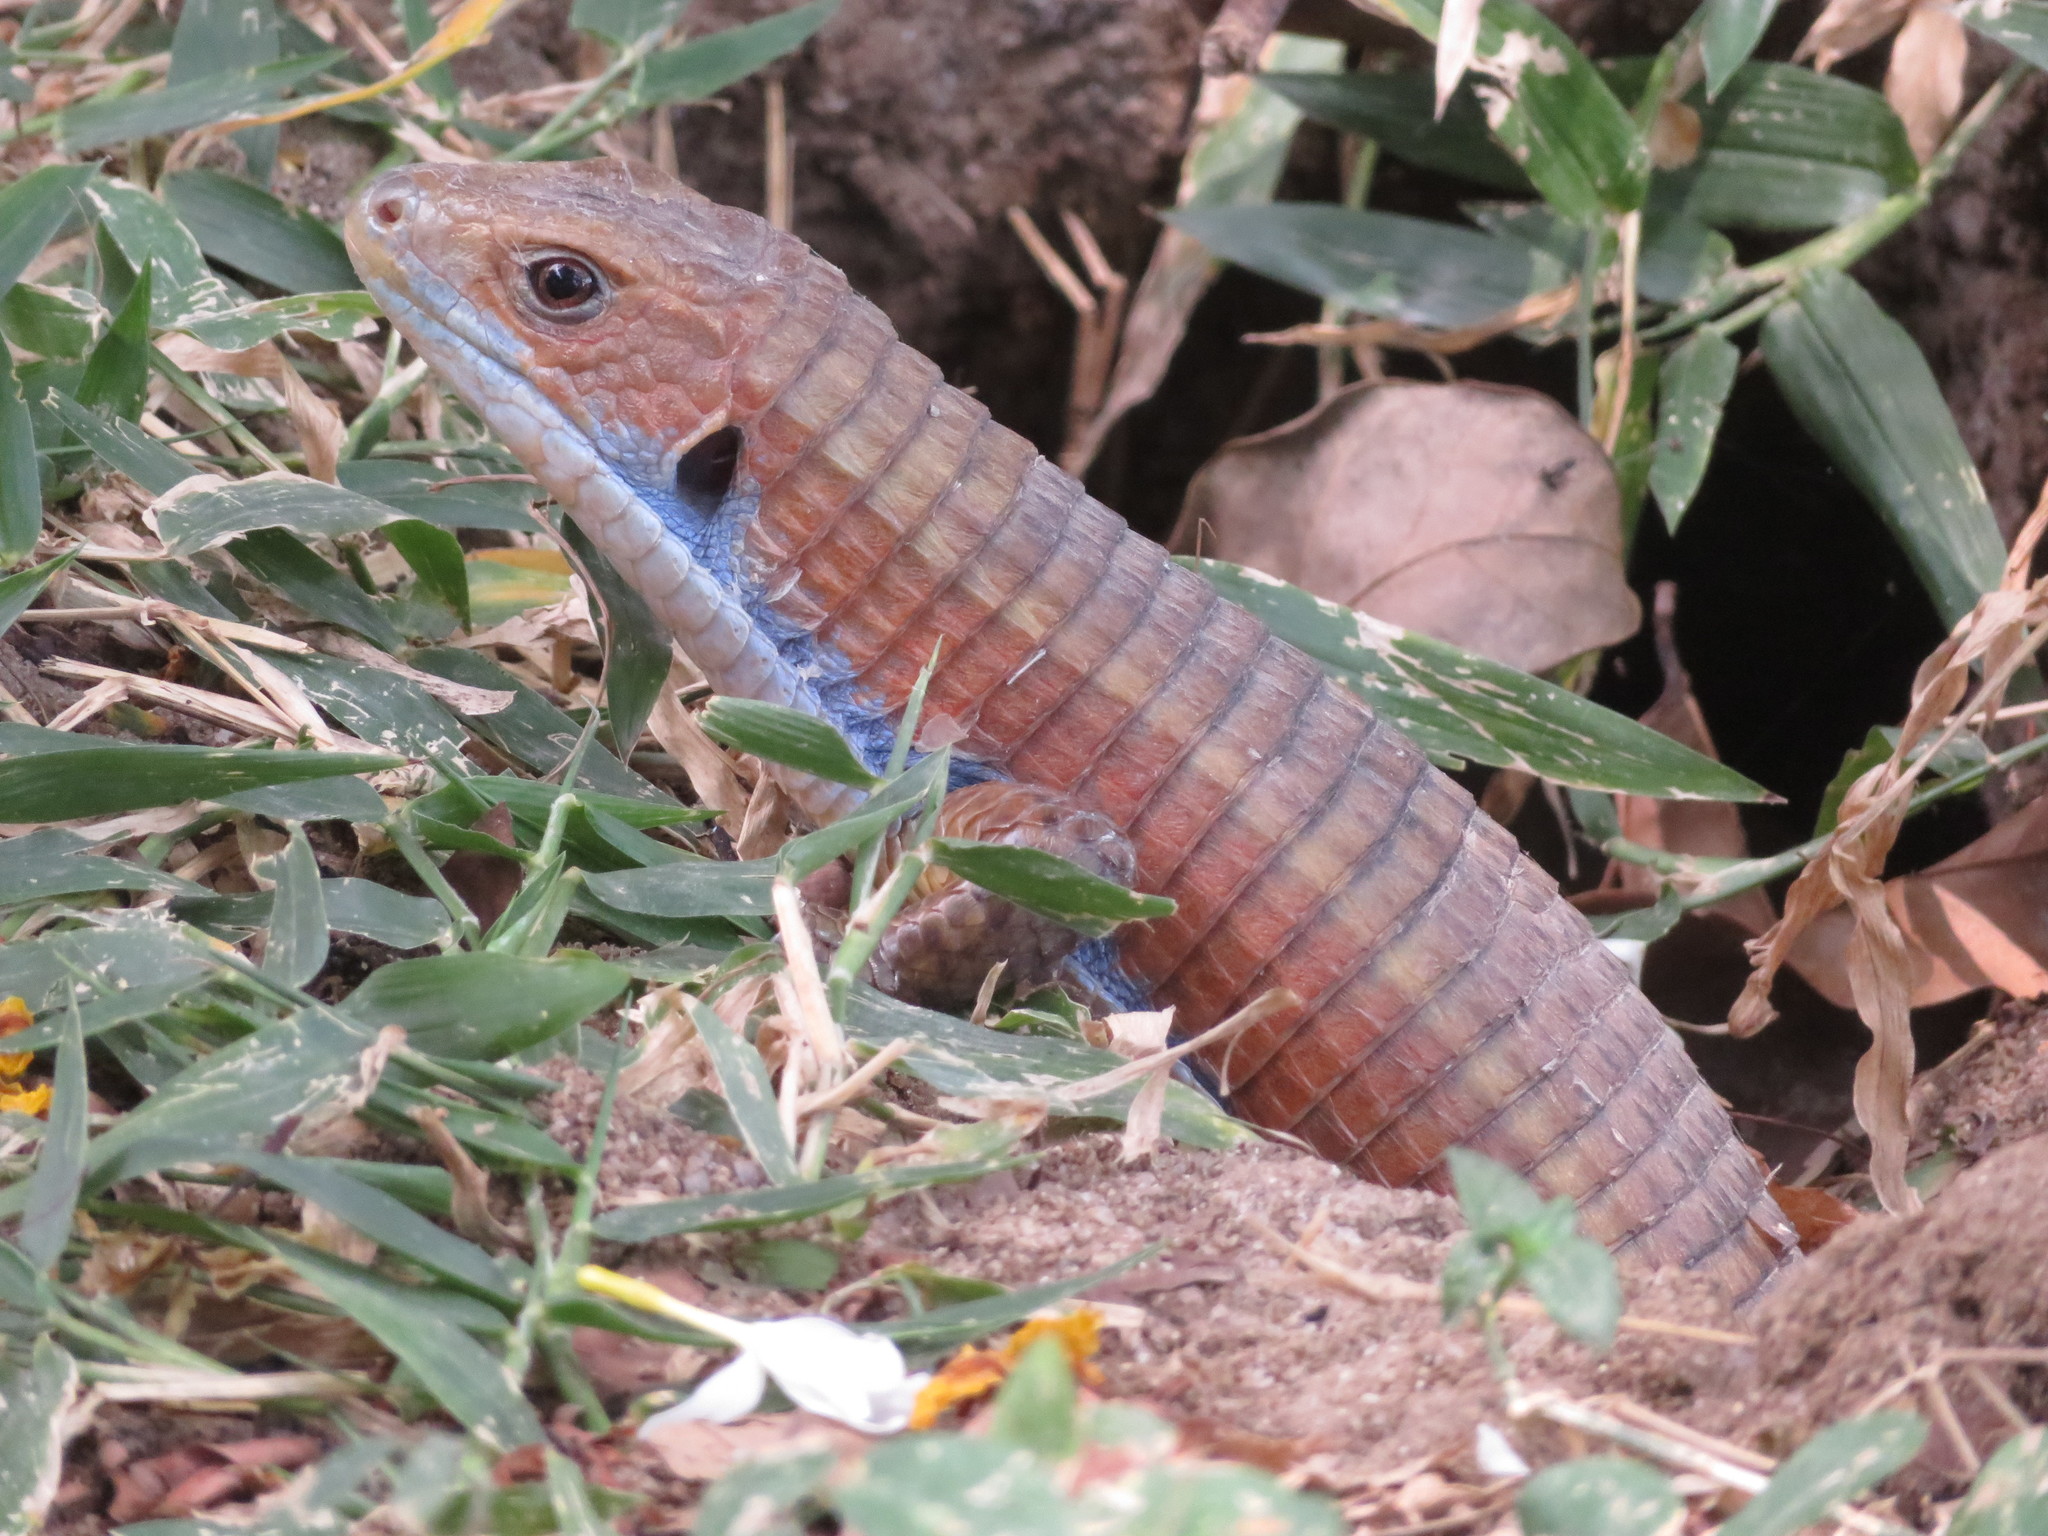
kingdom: Animalia
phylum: Chordata
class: Squamata
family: Gerrhosauridae
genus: Broadleysaurus
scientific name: Broadleysaurus major
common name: Rough-scaled plated lizard
